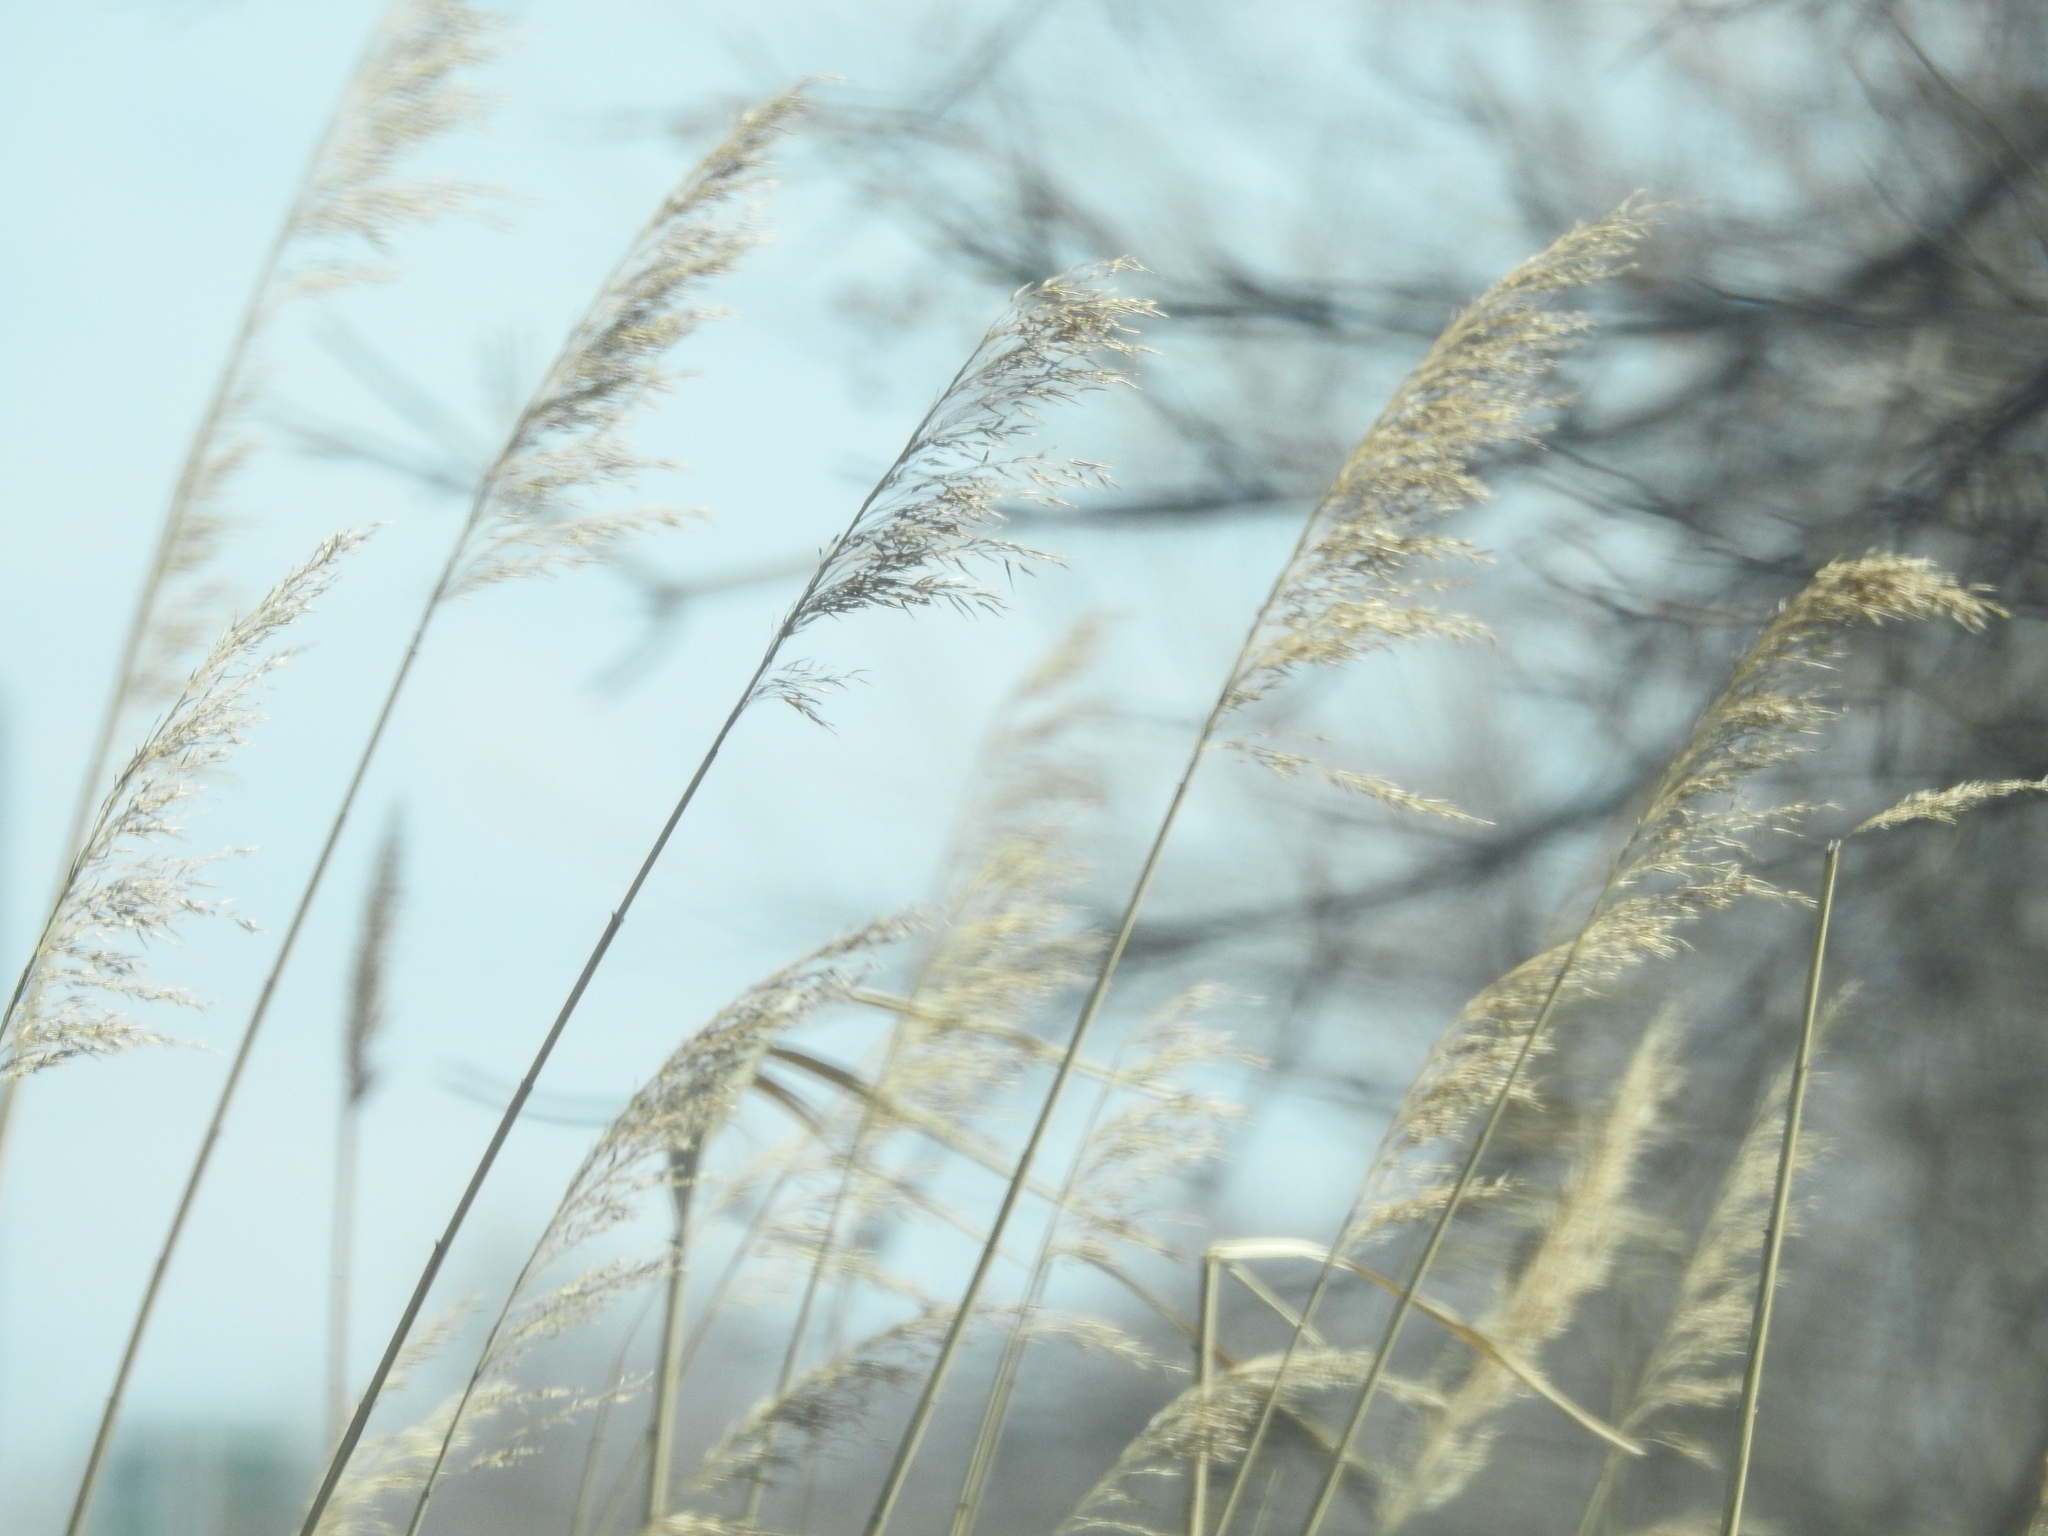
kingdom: Plantae
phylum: Tracheophyta
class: Liliopsida
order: Poales
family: Poaceae
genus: Phragmites
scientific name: Phragmites australis
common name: Common reed
